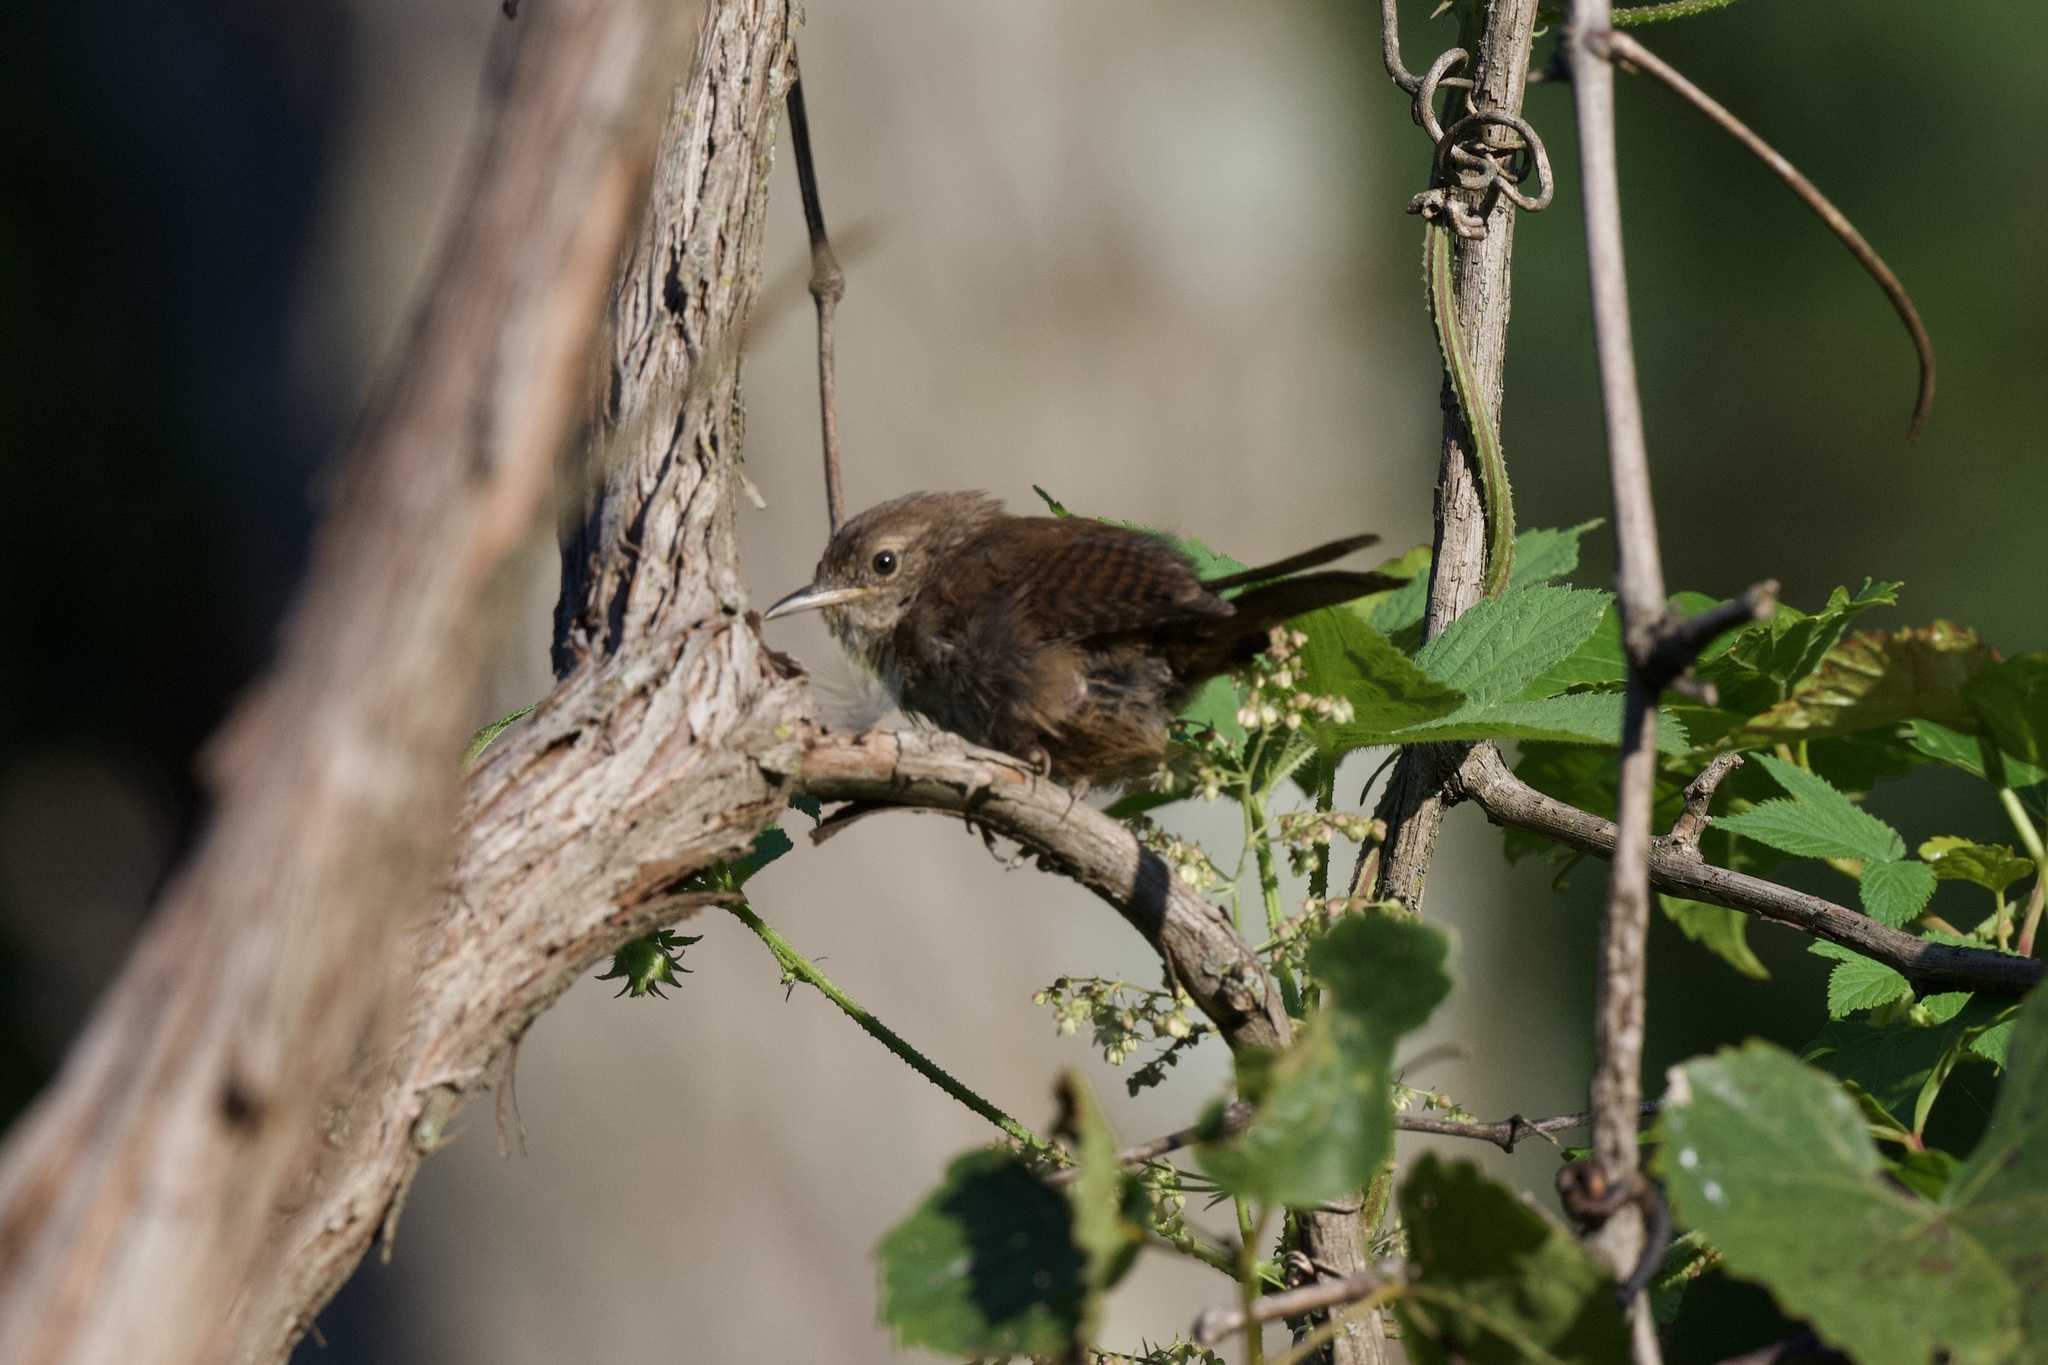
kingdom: Animalia
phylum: Chordata
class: Aves
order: Passeriformes
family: Troglodytidae
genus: Troglodytes
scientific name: Troglodytes aedon
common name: House wren
